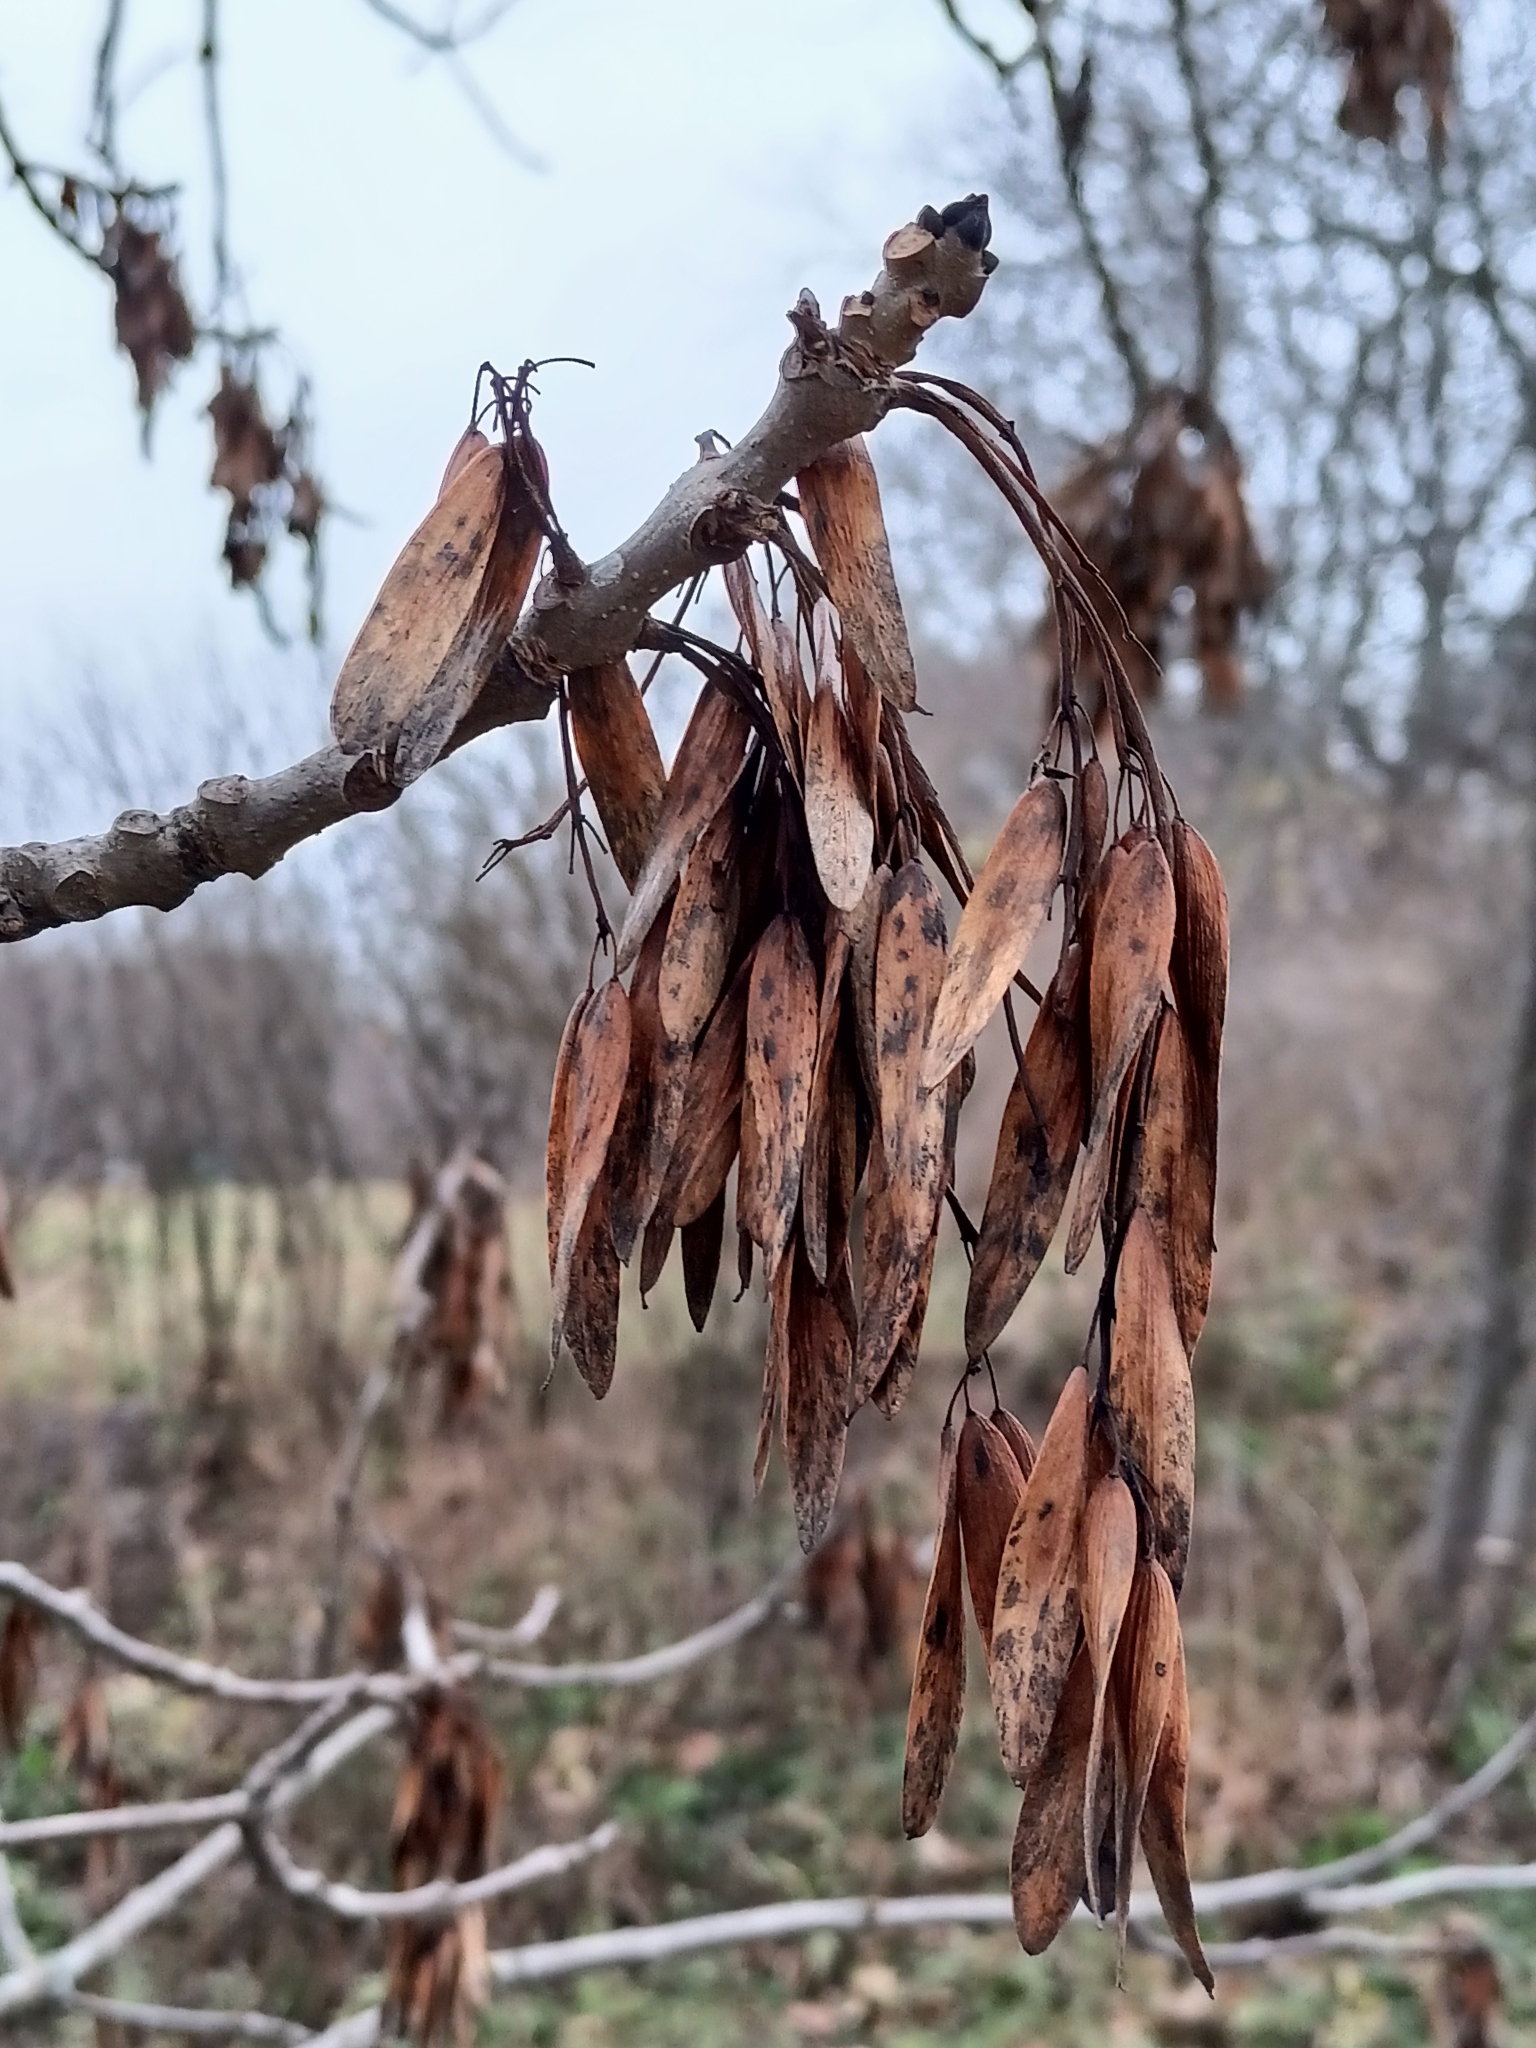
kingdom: Plantae
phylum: Tracheophyta
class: Magnoliopsida
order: Lamiales
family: Oleaceae
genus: Fraxinus
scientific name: Fraxinus excelsior
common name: European ash
